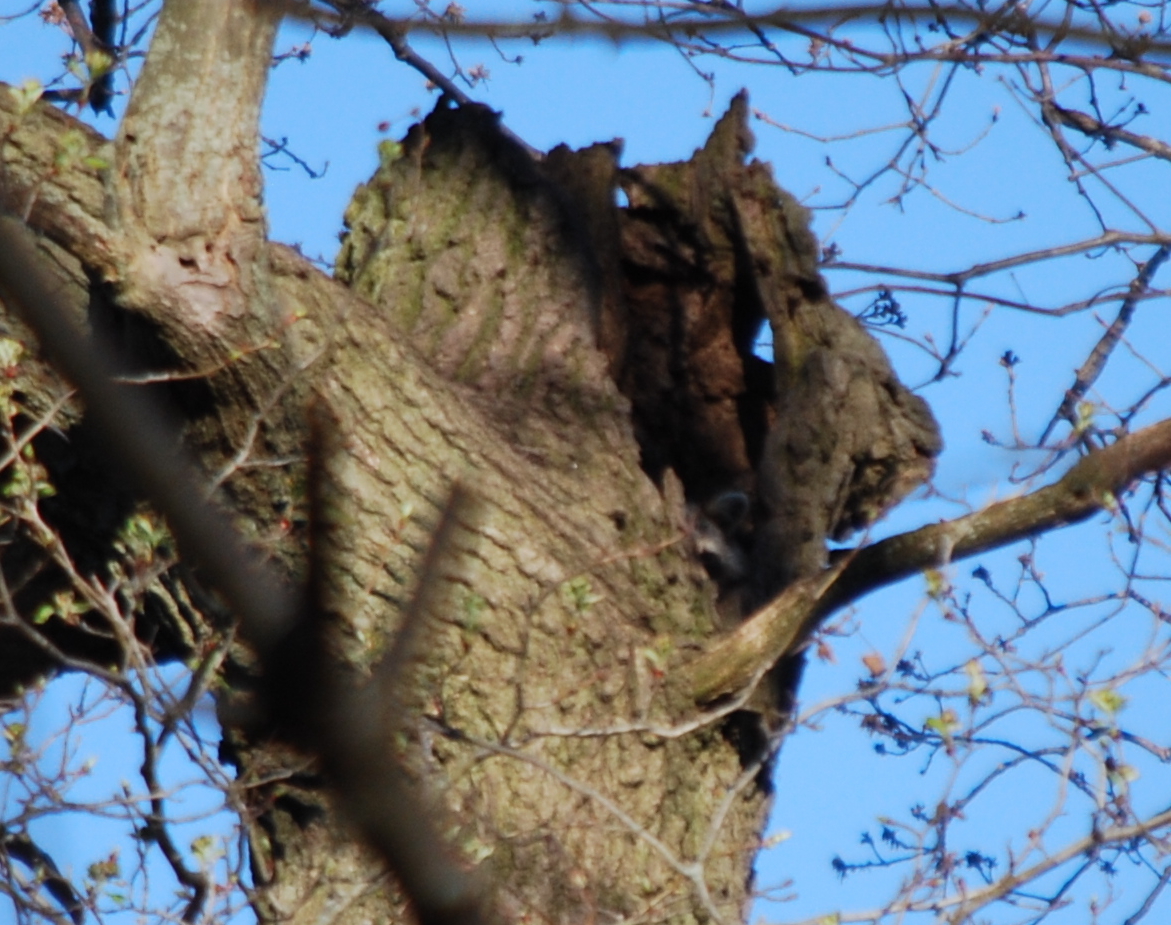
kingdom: Animalia
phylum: Chordata
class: Mammalia
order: Carnivora
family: Procyonidae
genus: Procyon
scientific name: Procyon lotor
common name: Raccoon
